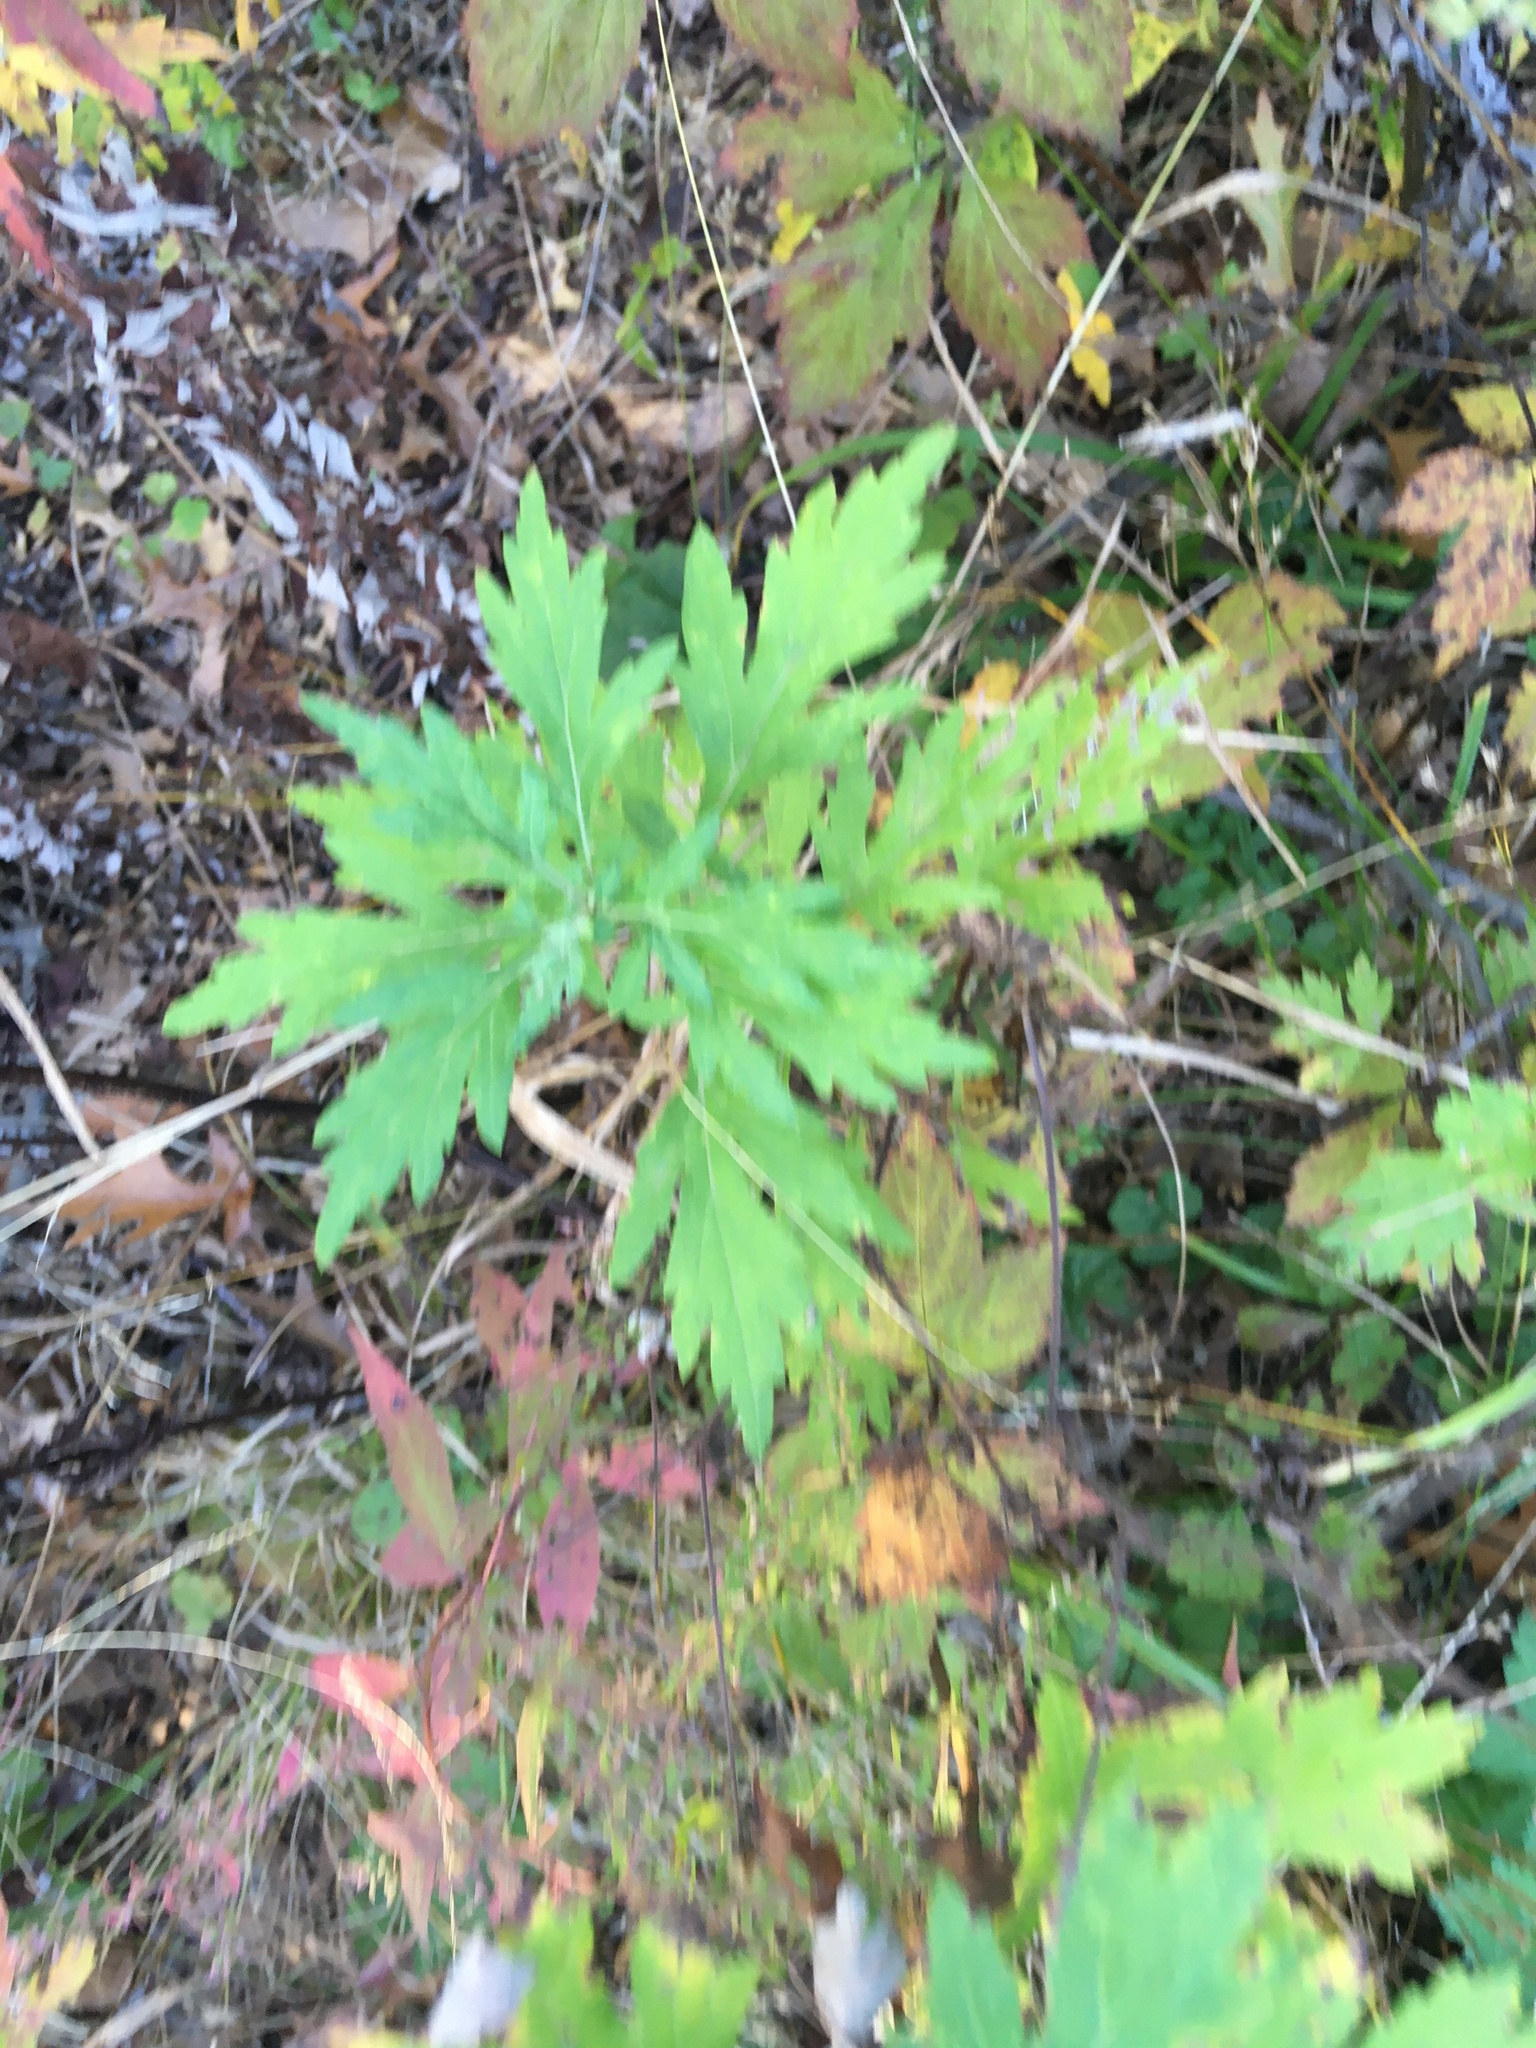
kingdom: Plantae
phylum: Tracheophyta
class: Magnoliopsida
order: Asterales
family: Asteraceae
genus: Artemisia
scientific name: Artemisia vulgaris
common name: Mugwort
